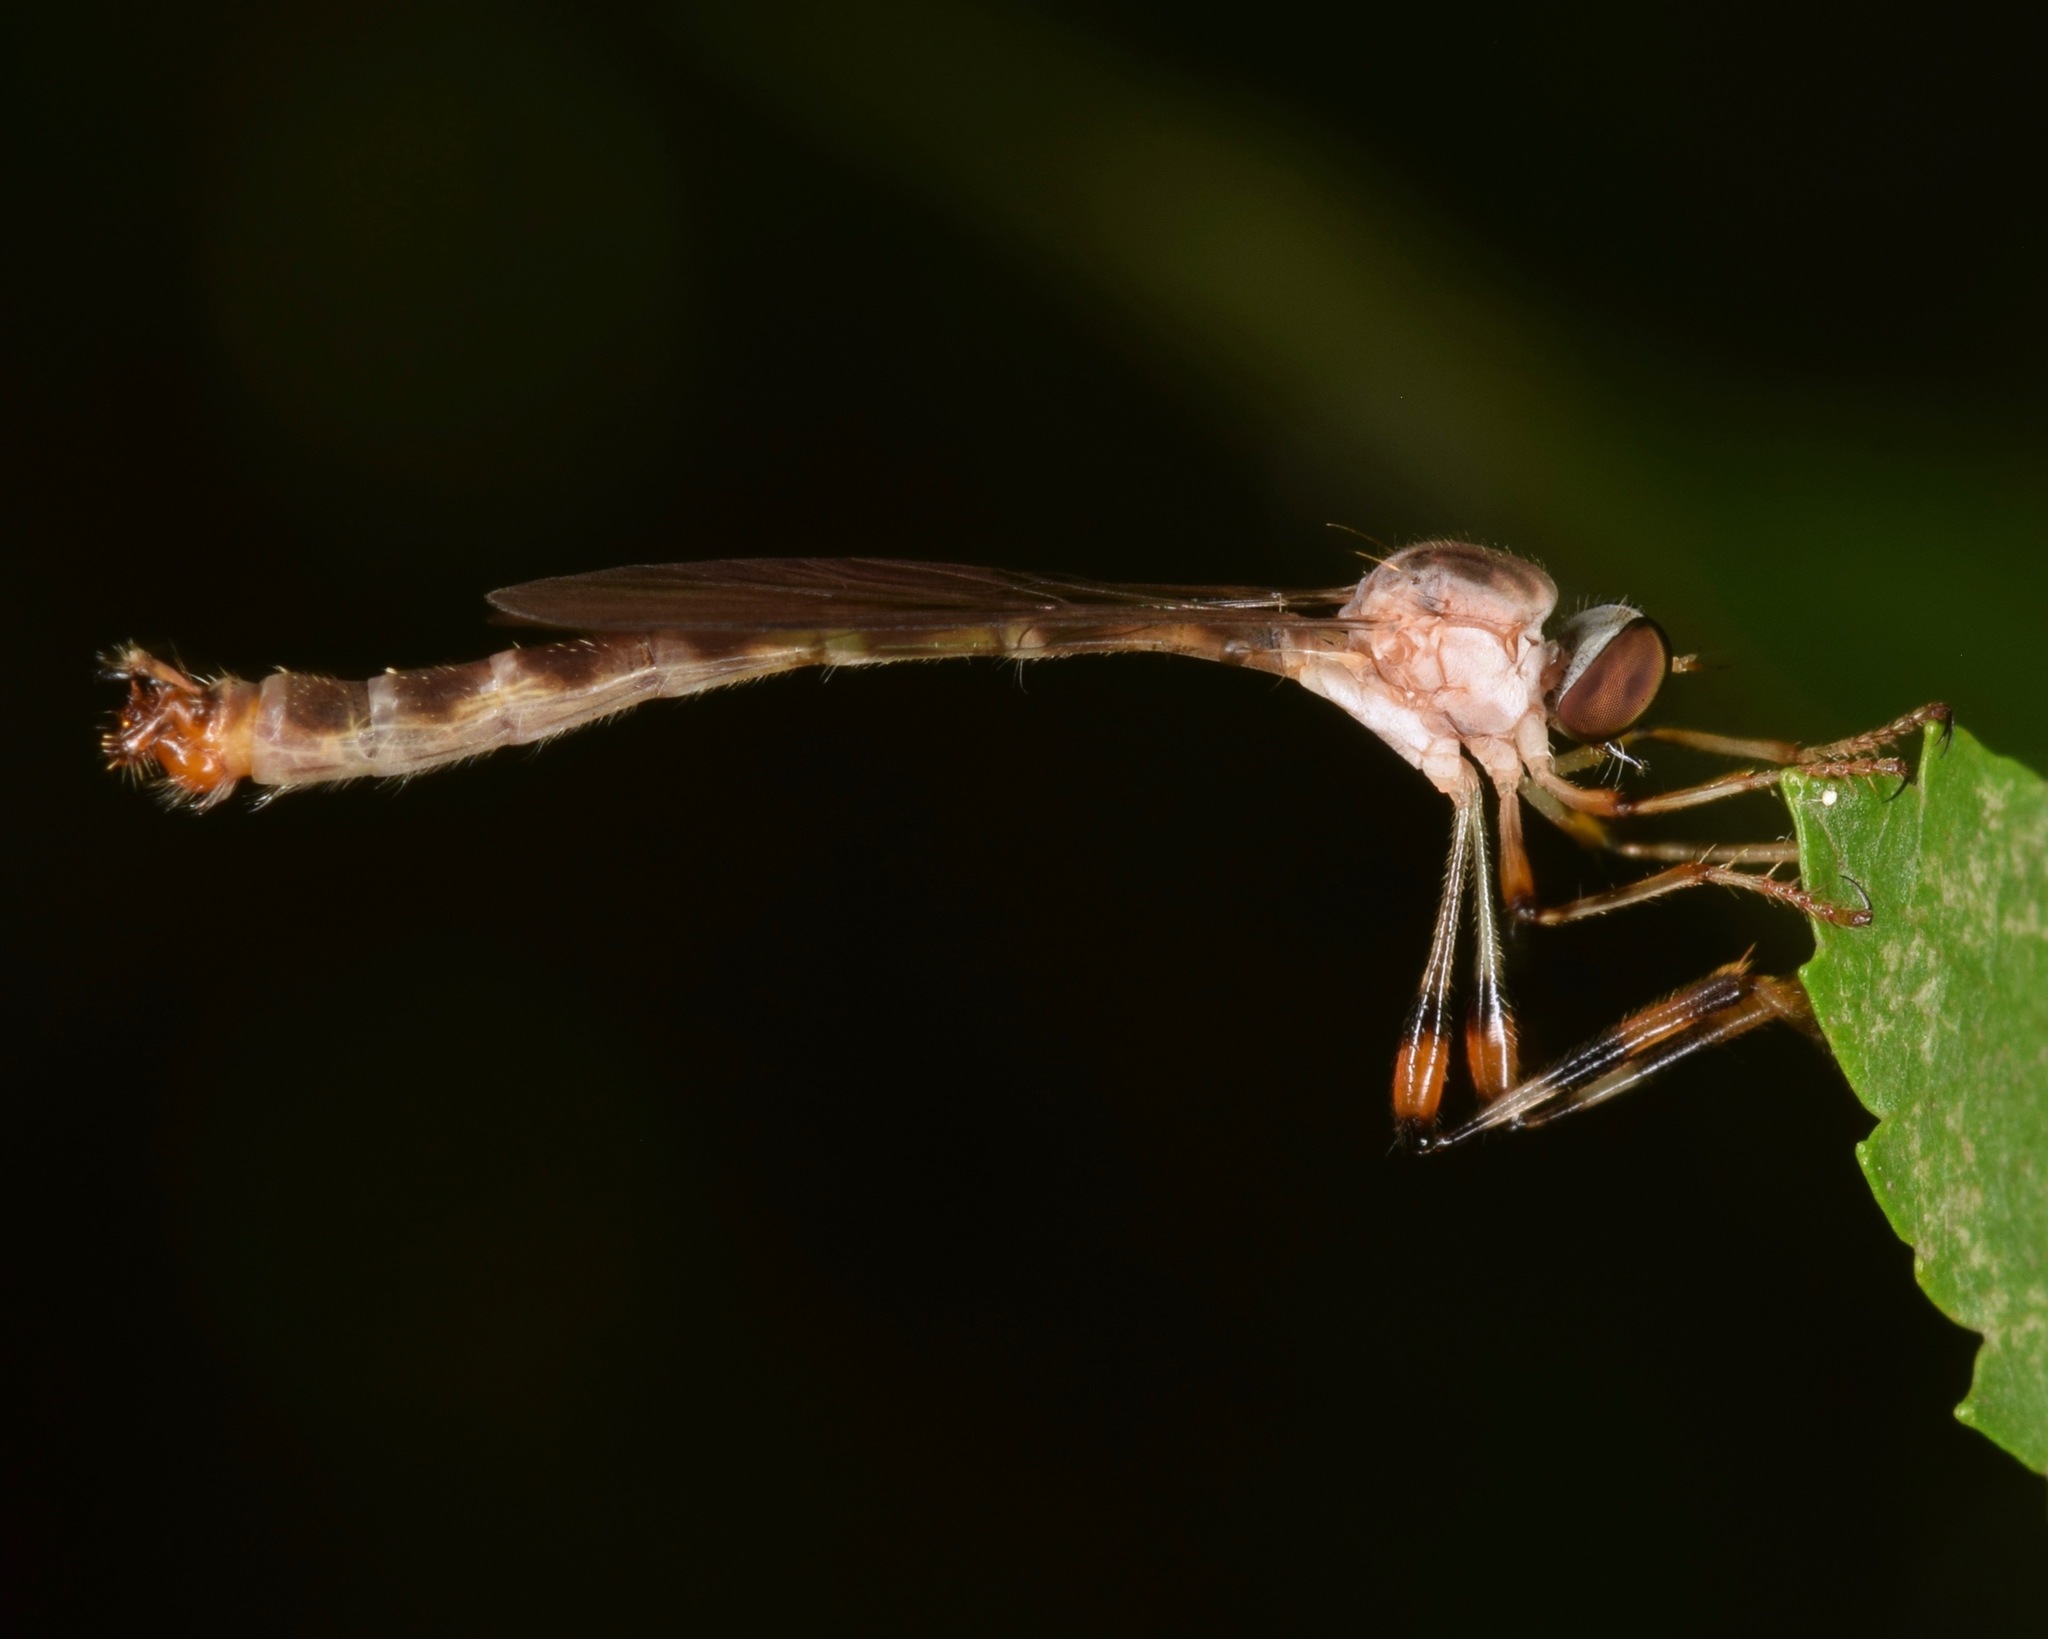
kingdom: Animalia
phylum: Arthropoda
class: Insecta
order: Diptera
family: Asilidae
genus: Psilonyx
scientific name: Psilonyx annulatus
